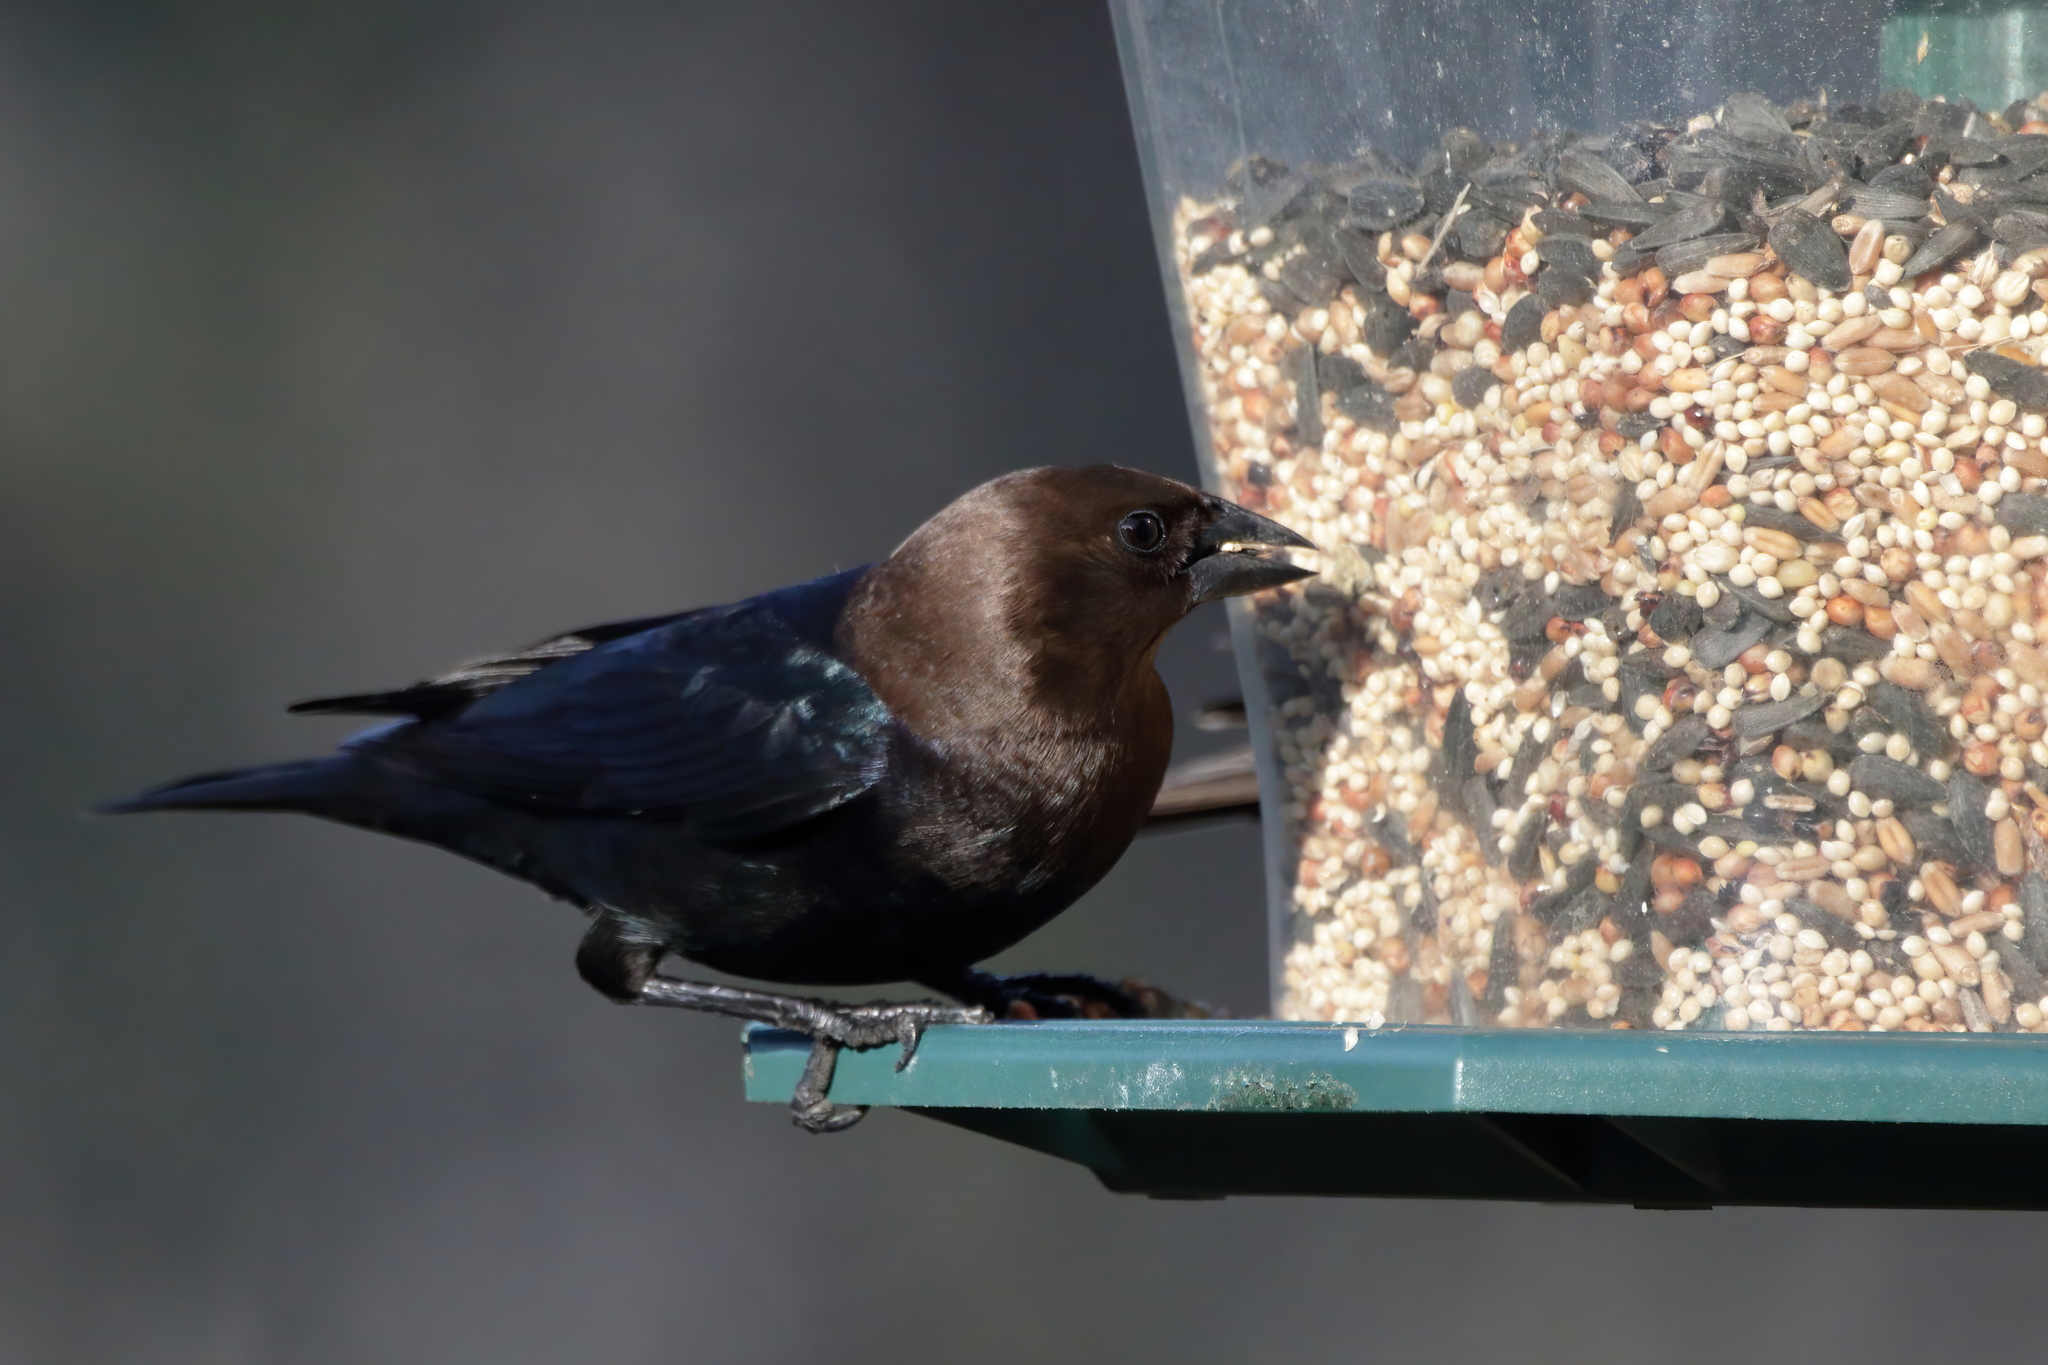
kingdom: Animalia
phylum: Chordata
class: Aves
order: Passeriformes
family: Icteridae
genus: Molothrus
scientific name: Molothrus ater
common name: Brown-headed cowbird
